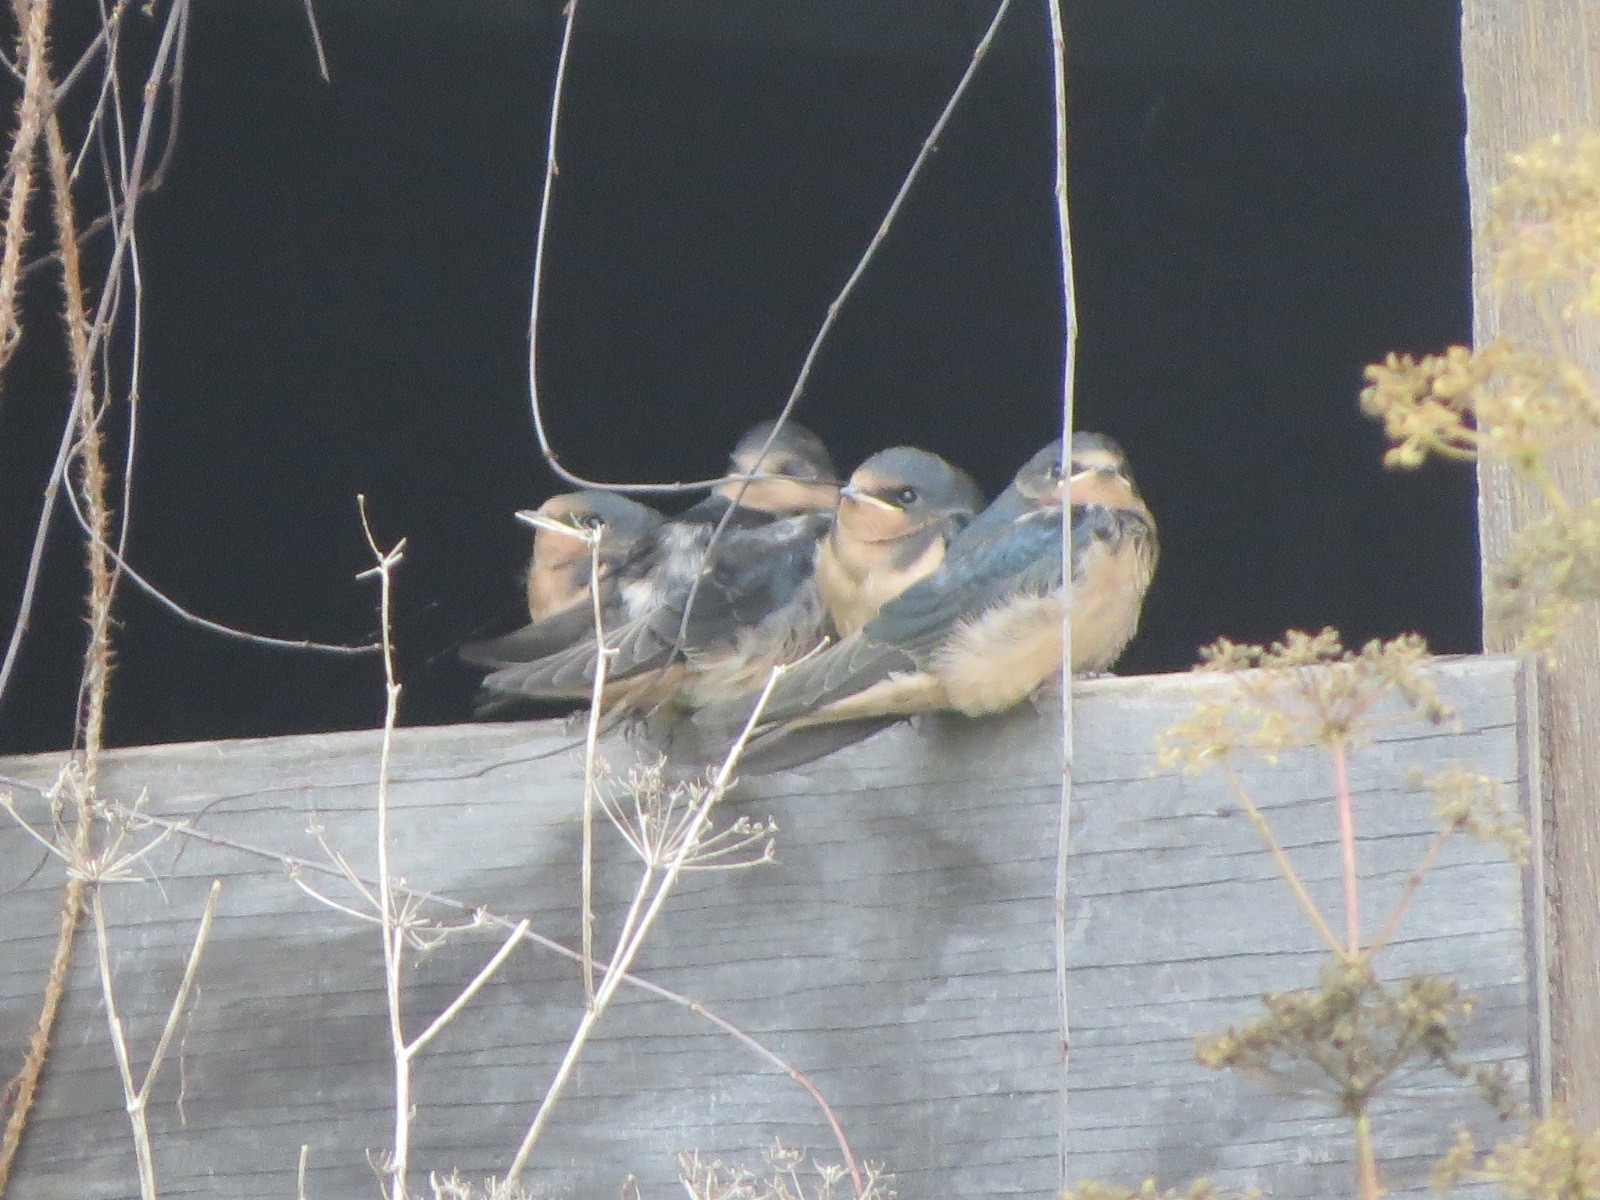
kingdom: Animalia
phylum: Chordata
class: Aves
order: Passeriformes
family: Hirundinidae
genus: Hirundo
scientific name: Hirundo rustica
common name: Barn swallow
